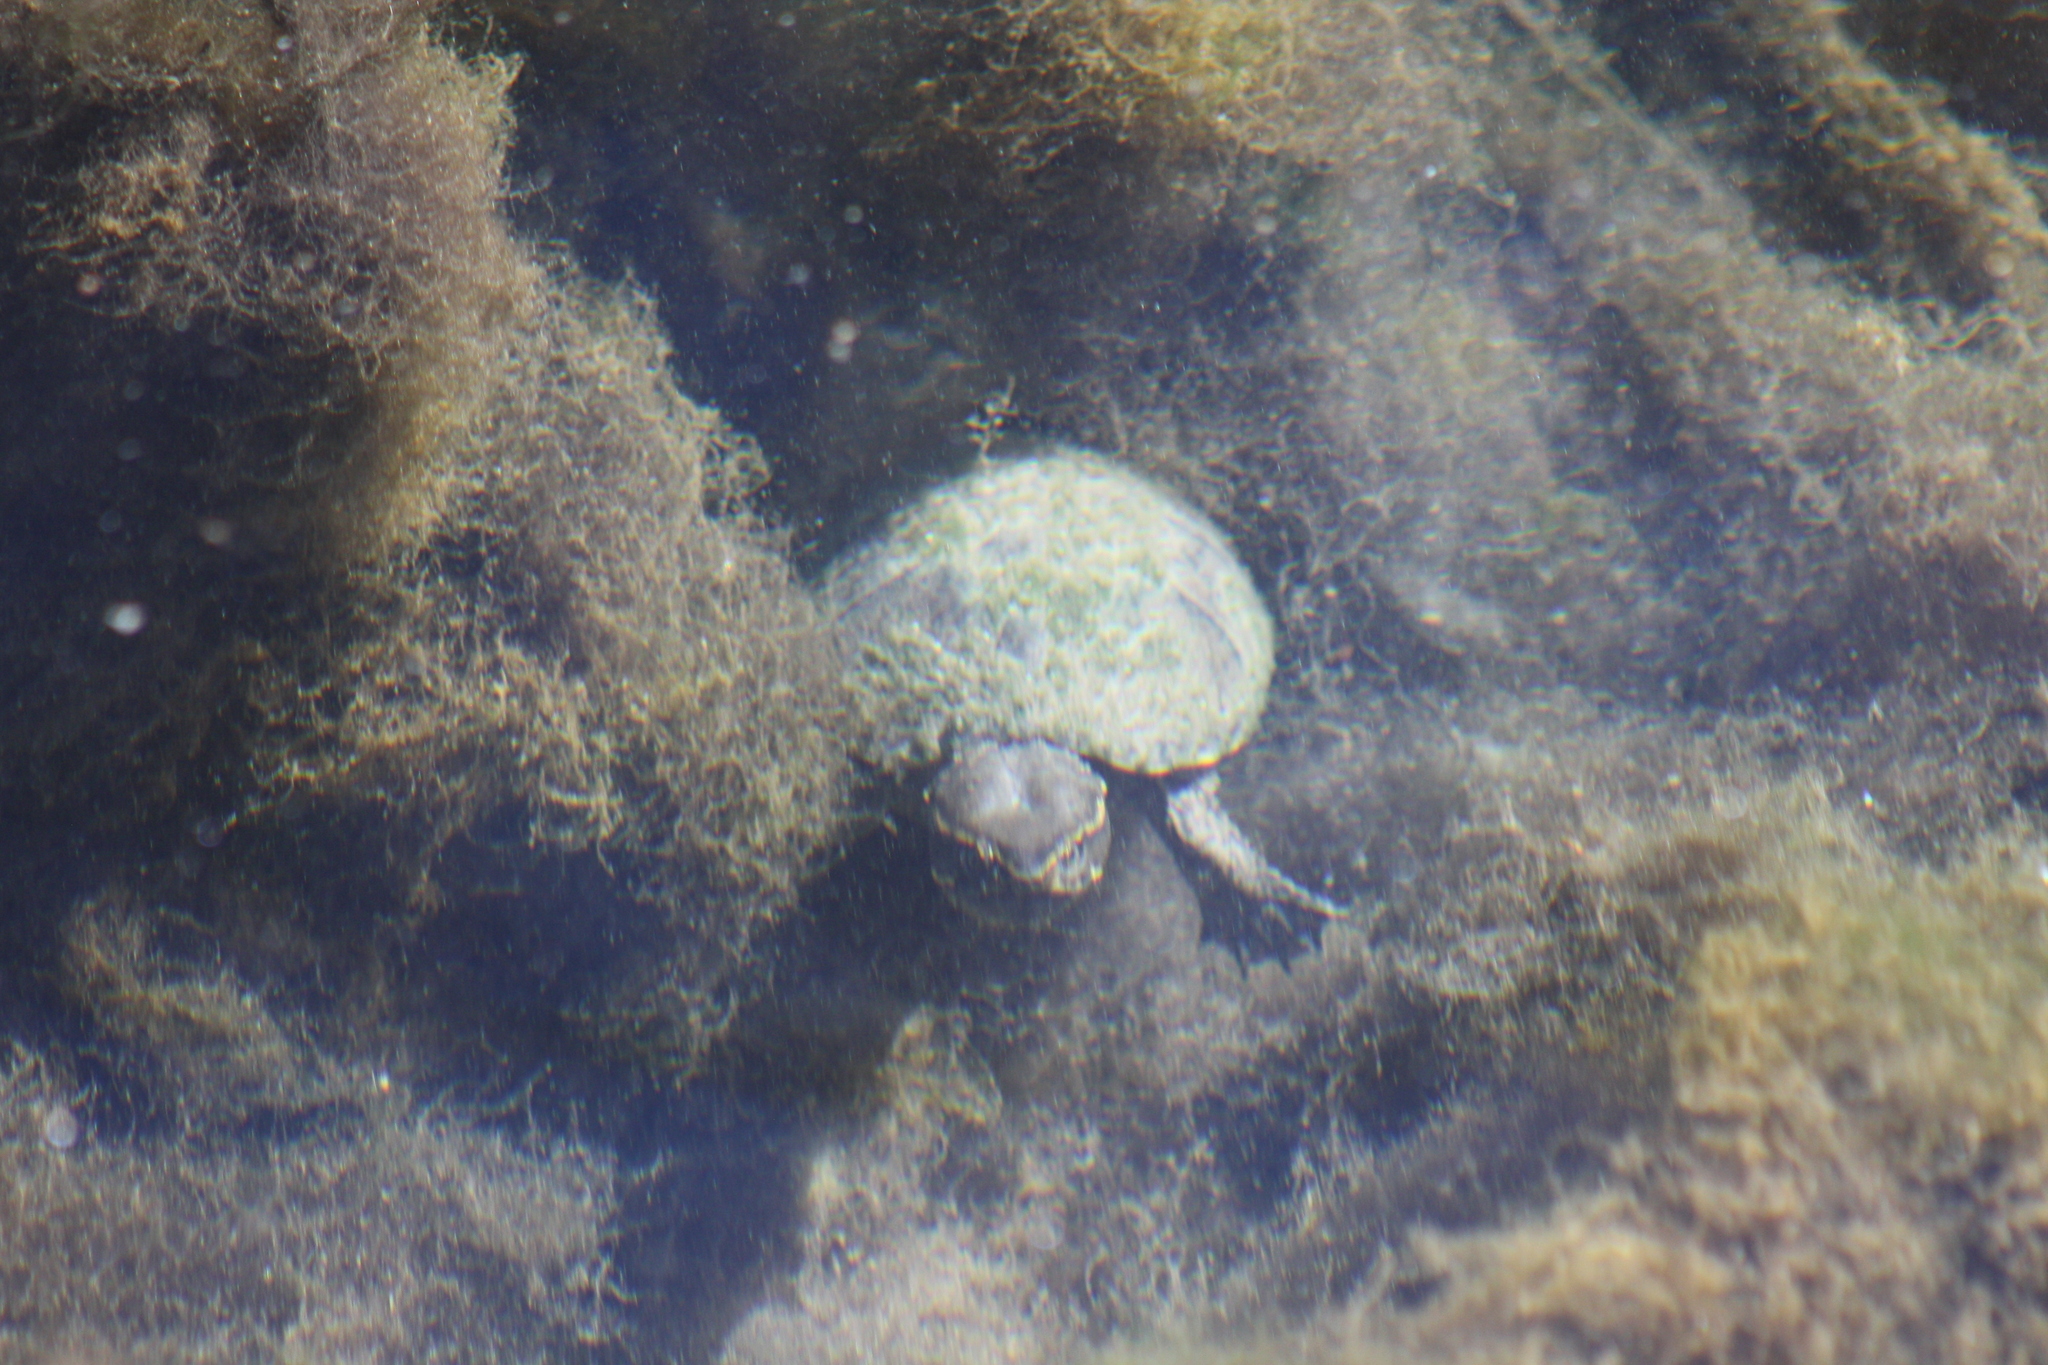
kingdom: Animalia
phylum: Chordata
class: Testudines
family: Kinosternidae
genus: Sternotherus
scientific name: Sternotherus odoratus
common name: Common musk turtle
